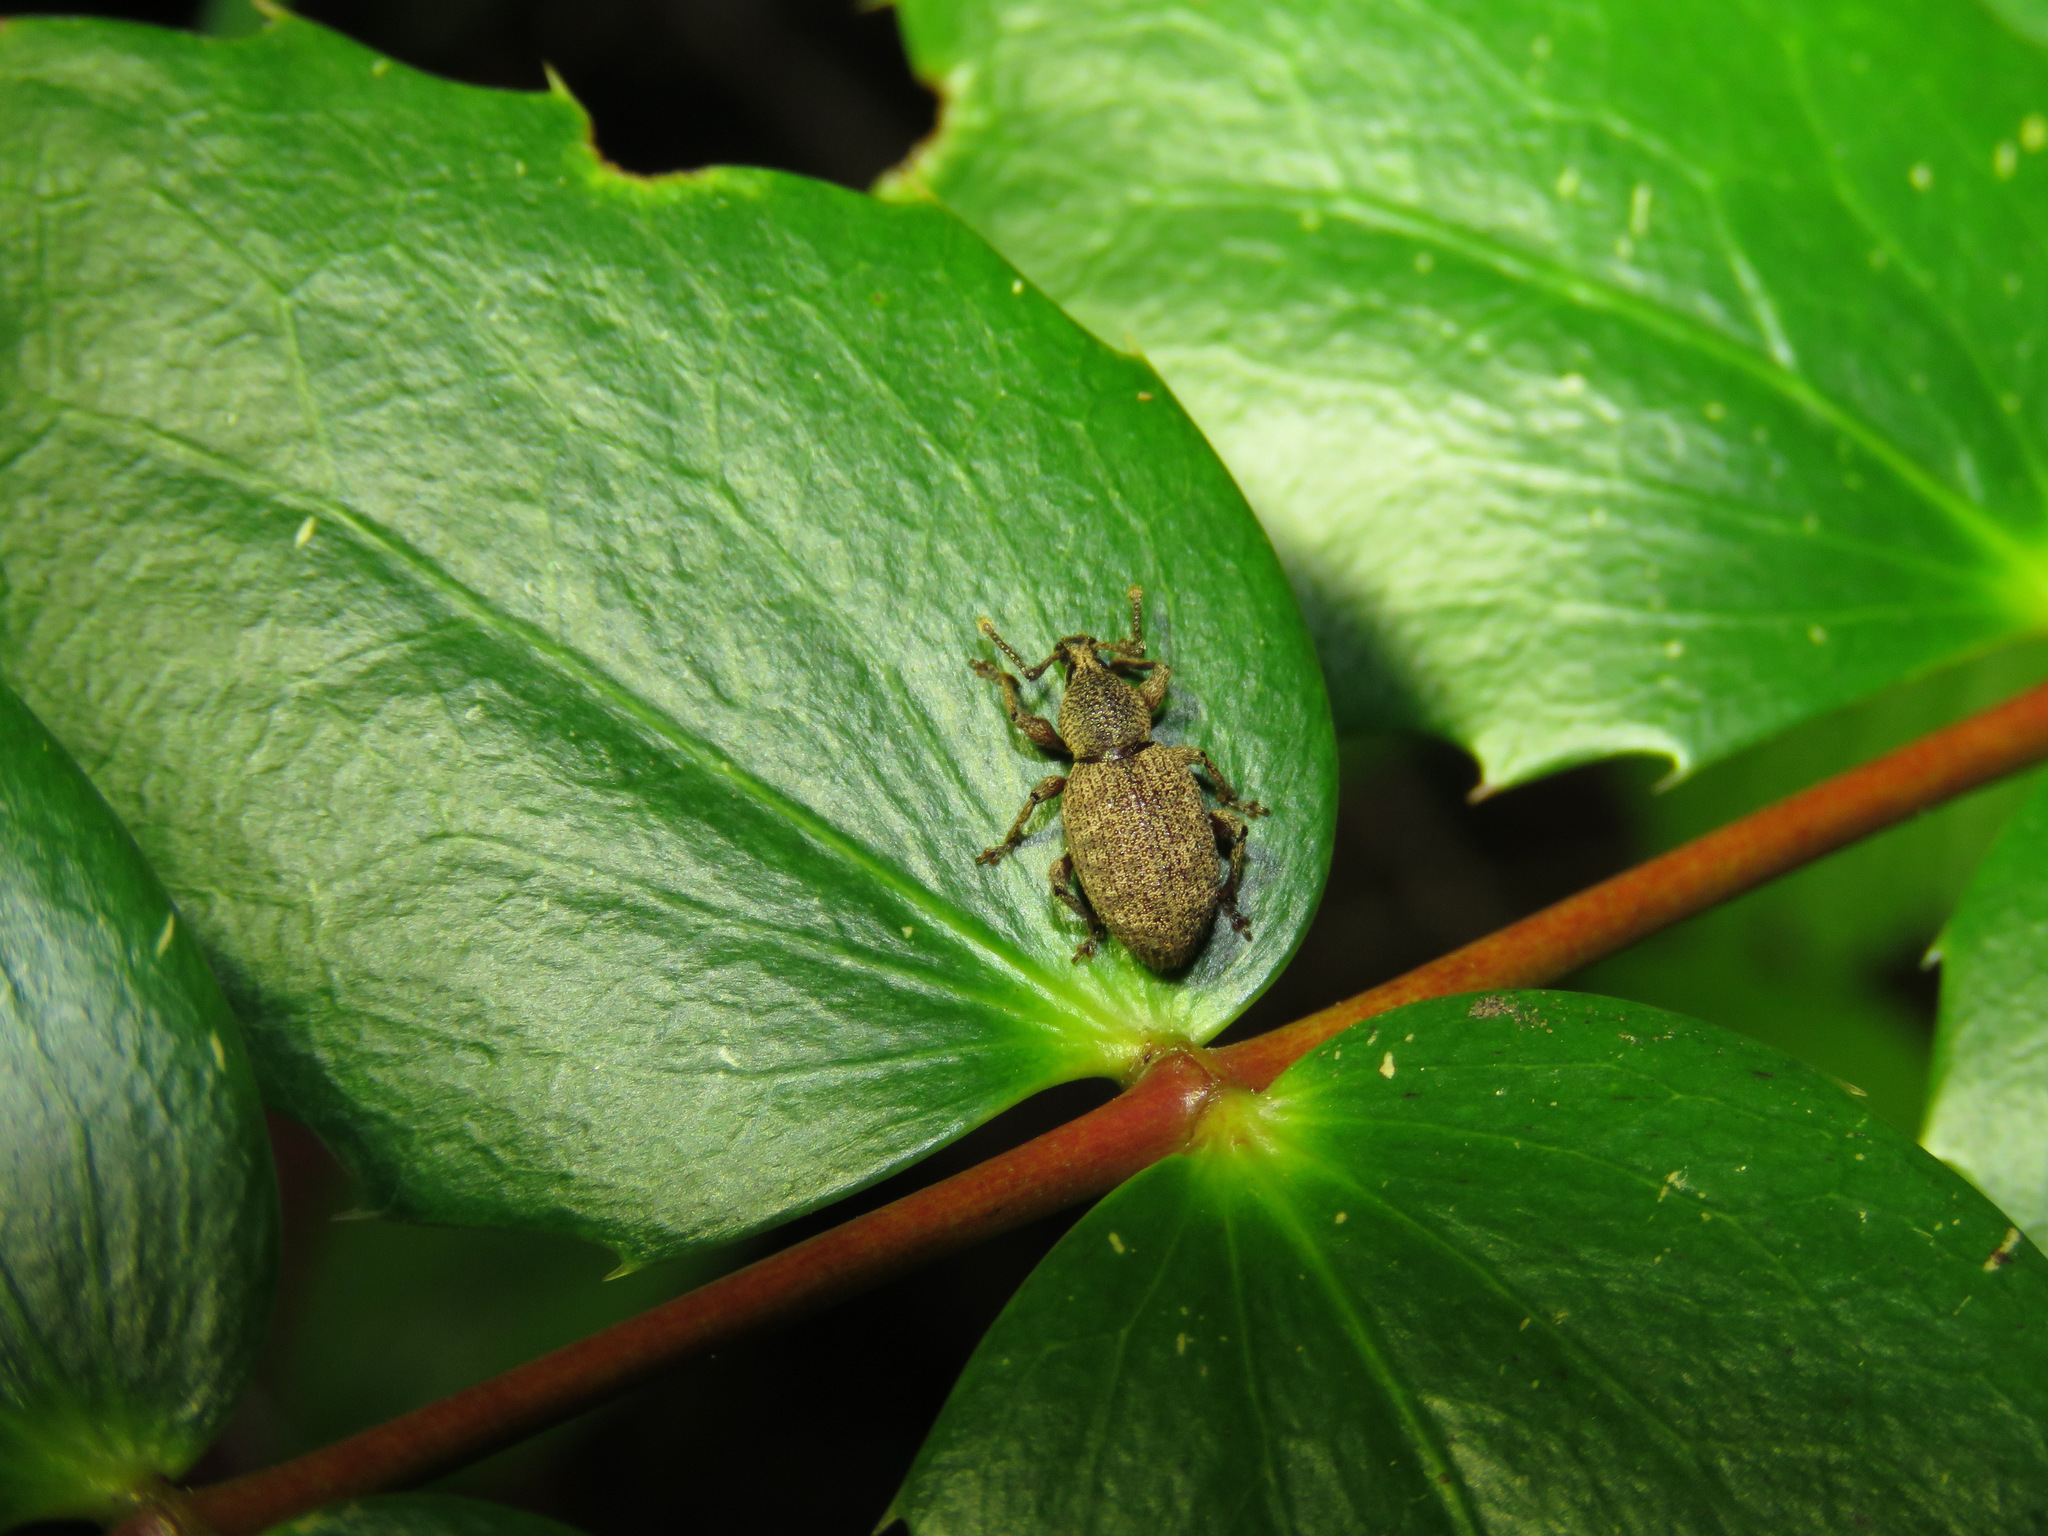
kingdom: Animalia
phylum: Arthropoda
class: Insecta
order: Coleoptera
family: Curculionidae
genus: Otiorhynchus
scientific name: Otiorhynchus singularis
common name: Clay-coloured weevil
